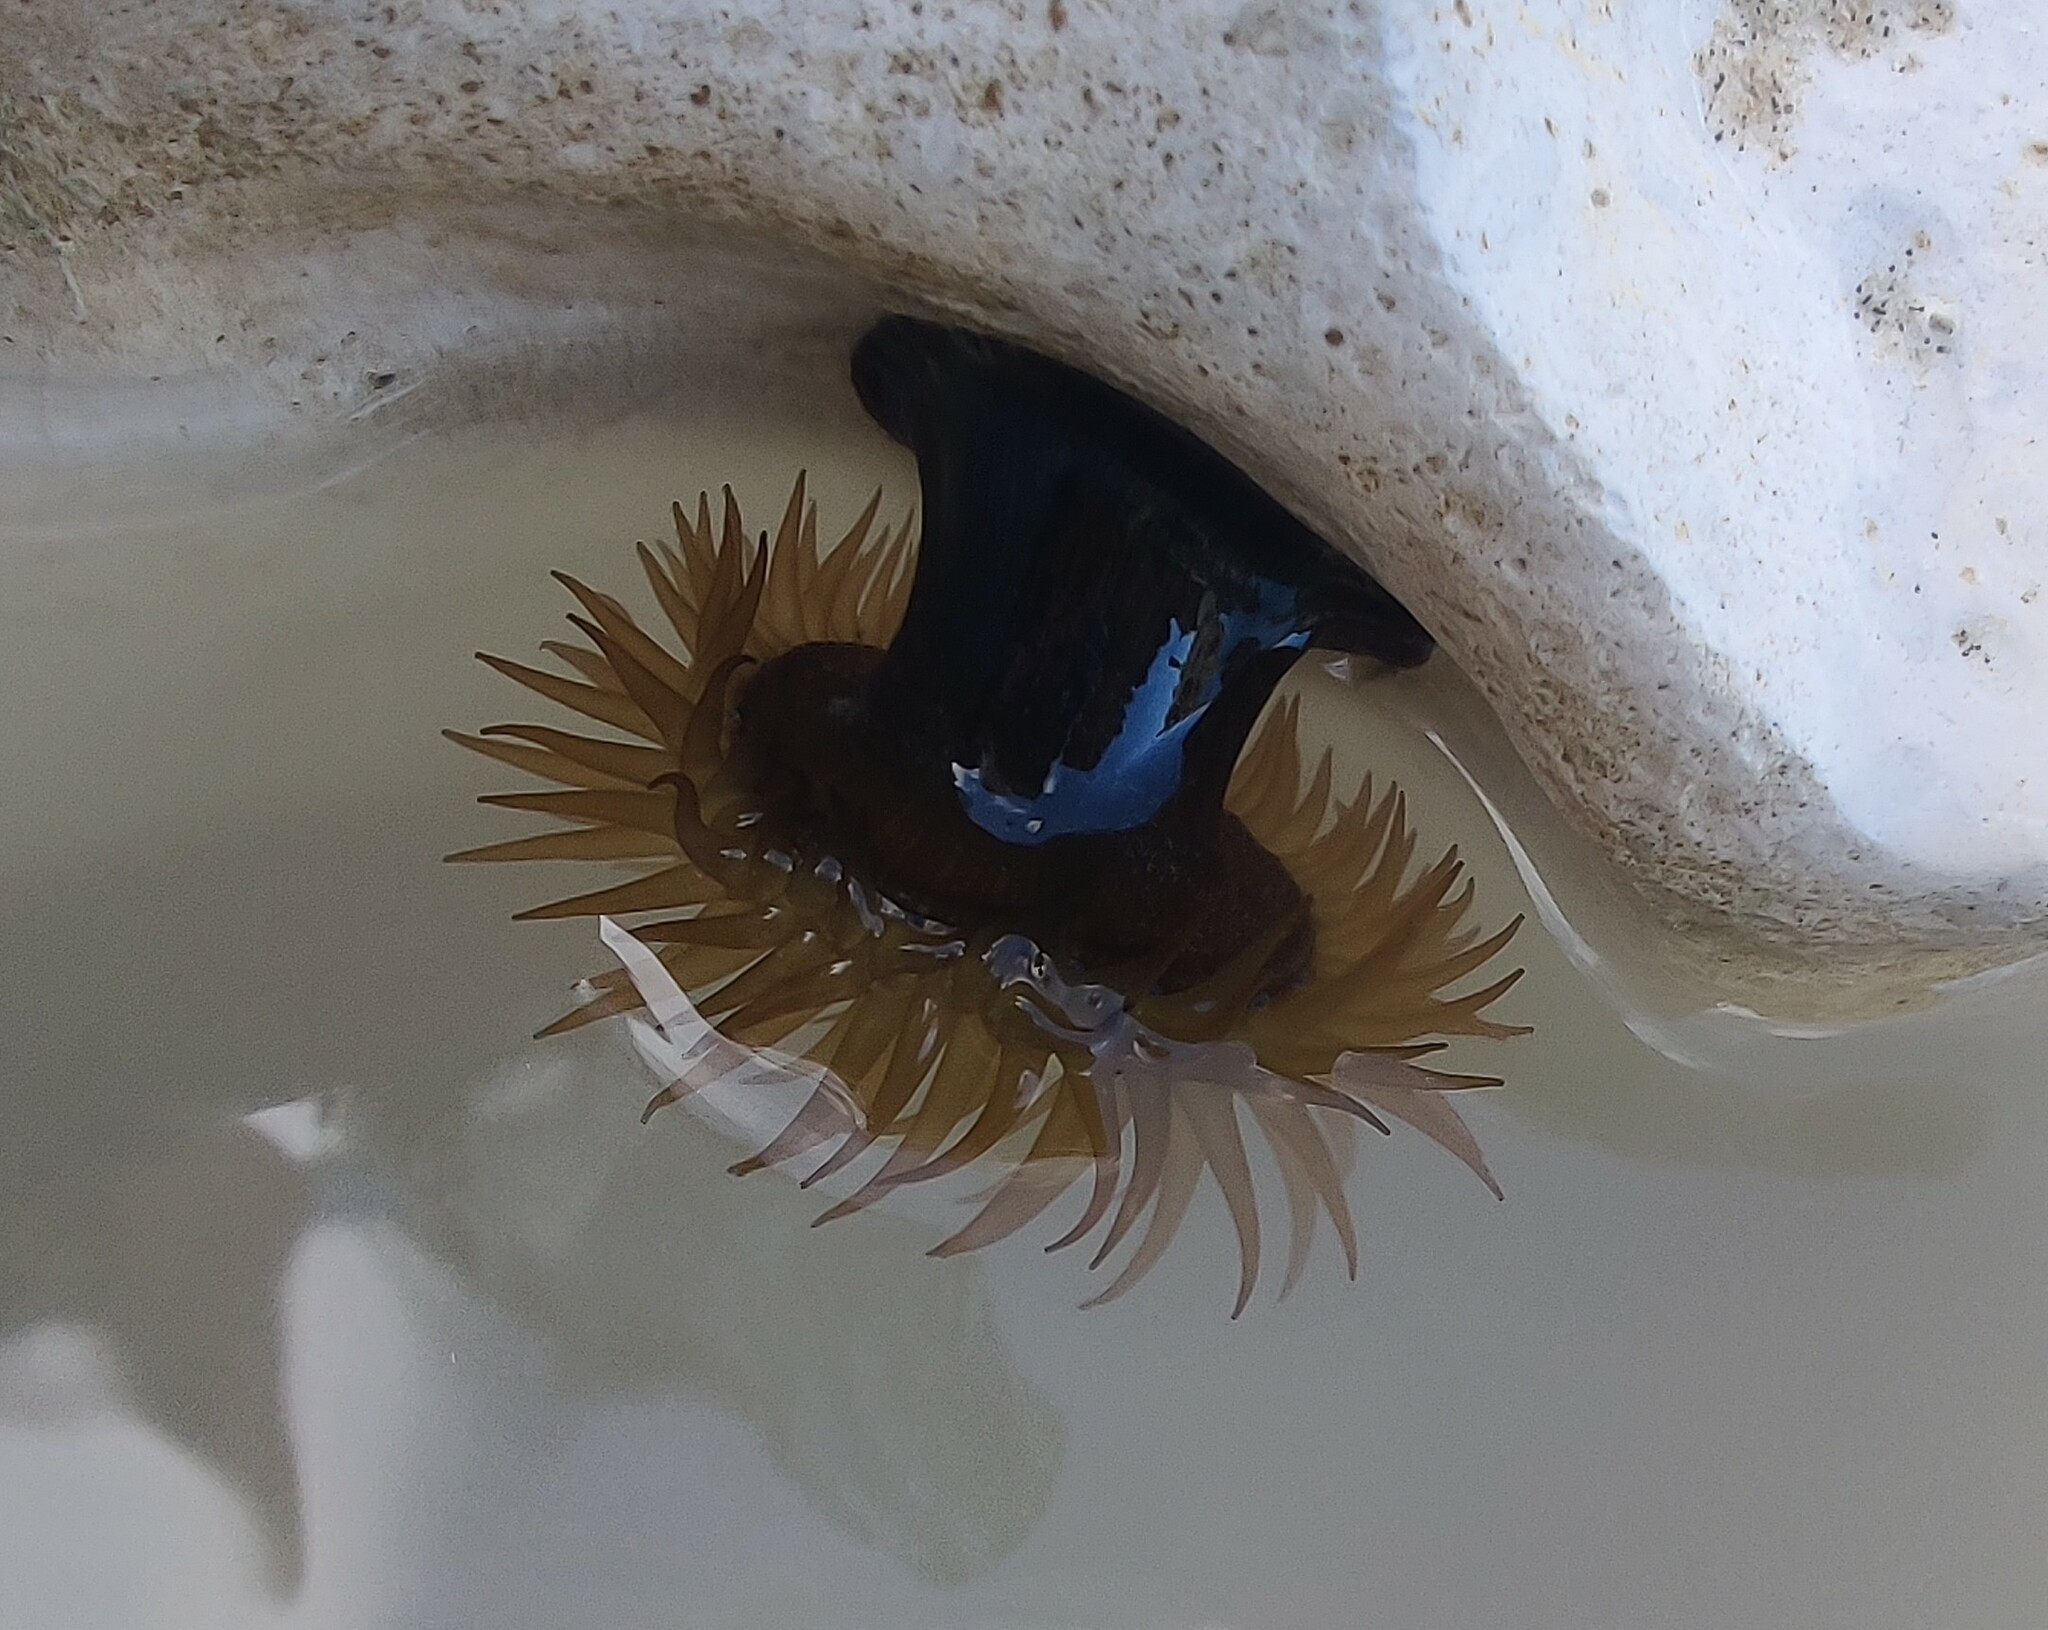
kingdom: Animalia
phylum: Cnidaria
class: Anthozoa
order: Actiniaria
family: Actiniidae
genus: Actinia
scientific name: Actinia equina
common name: Beadlet anemone
